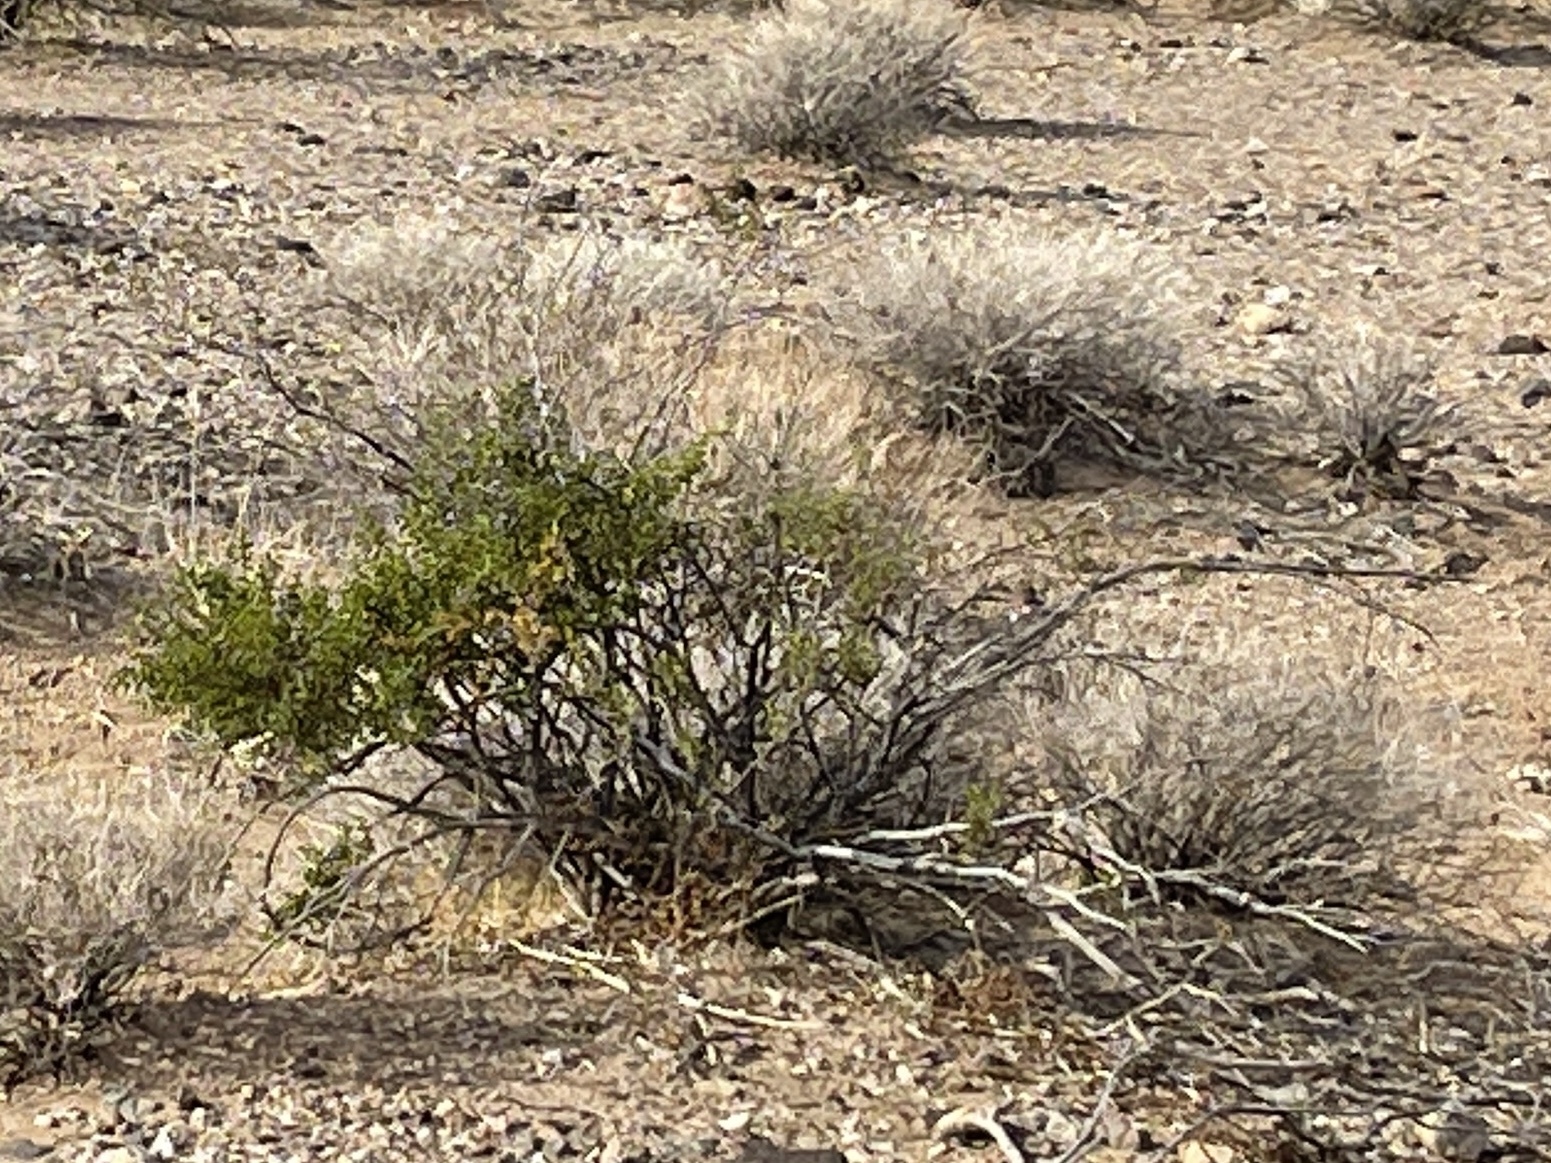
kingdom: Plantae
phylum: Tracheophyta
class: Magnoliopsida
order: Zygophyllales
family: Zygophyllaceae
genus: Larrea
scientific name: Larrea tridentata
